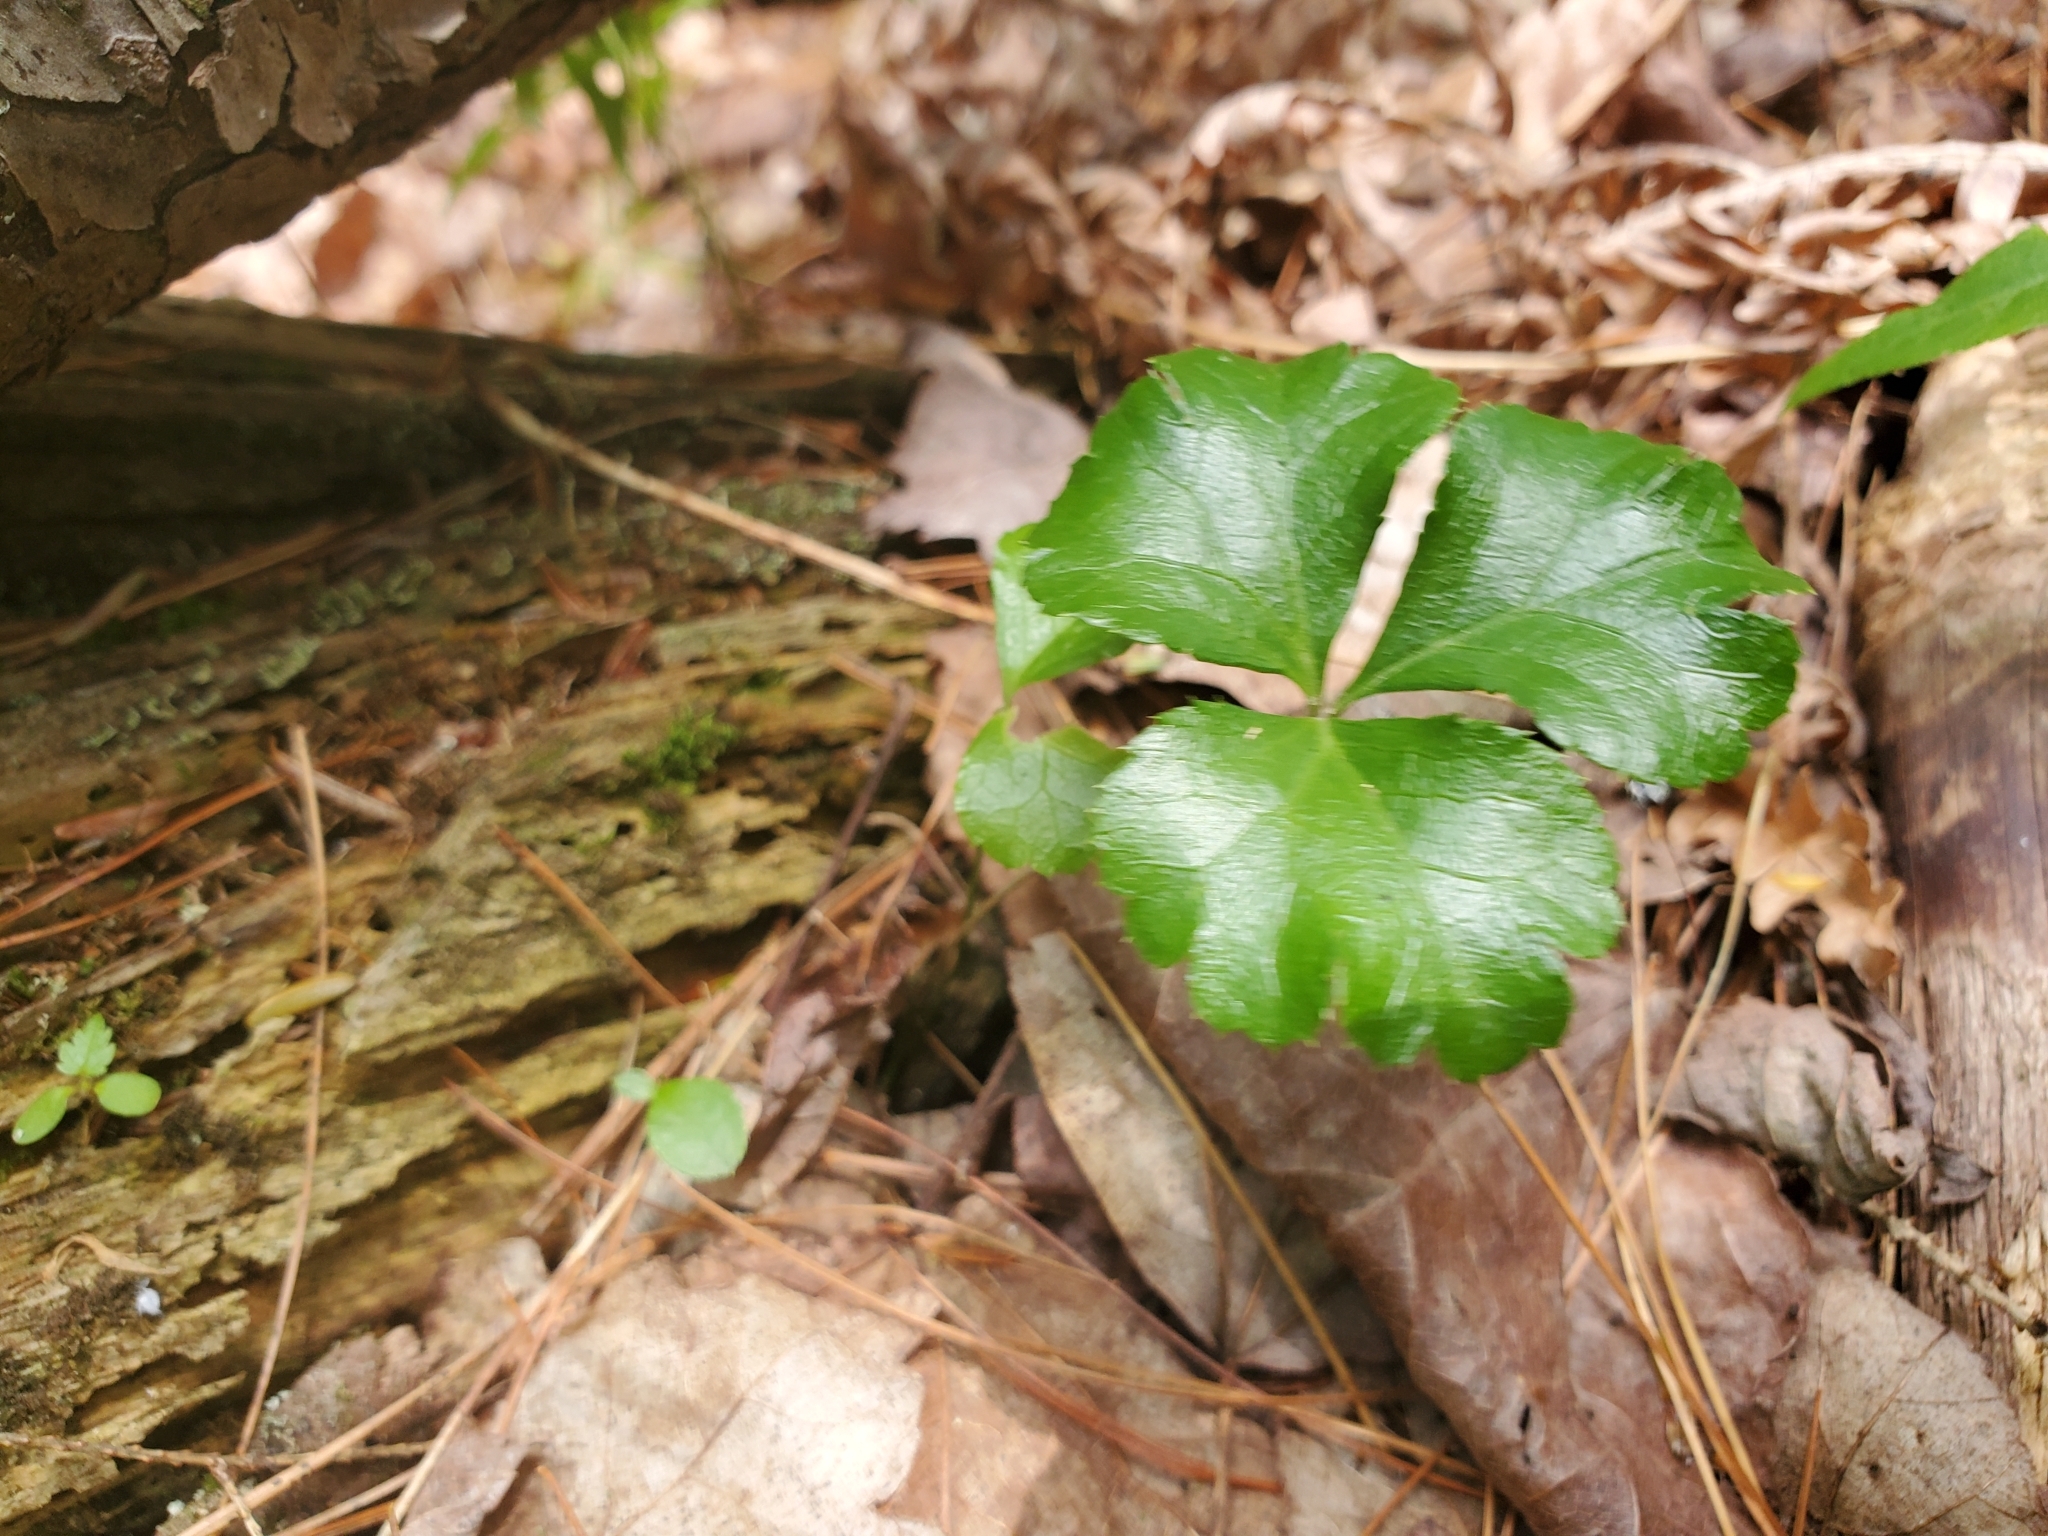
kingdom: Plantae
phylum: Tracheophyta
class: Magnoliopsida
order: Ranunculales
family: Ranunculaceae
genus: Coptis
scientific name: Coptis trifolia
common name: Canker-root
